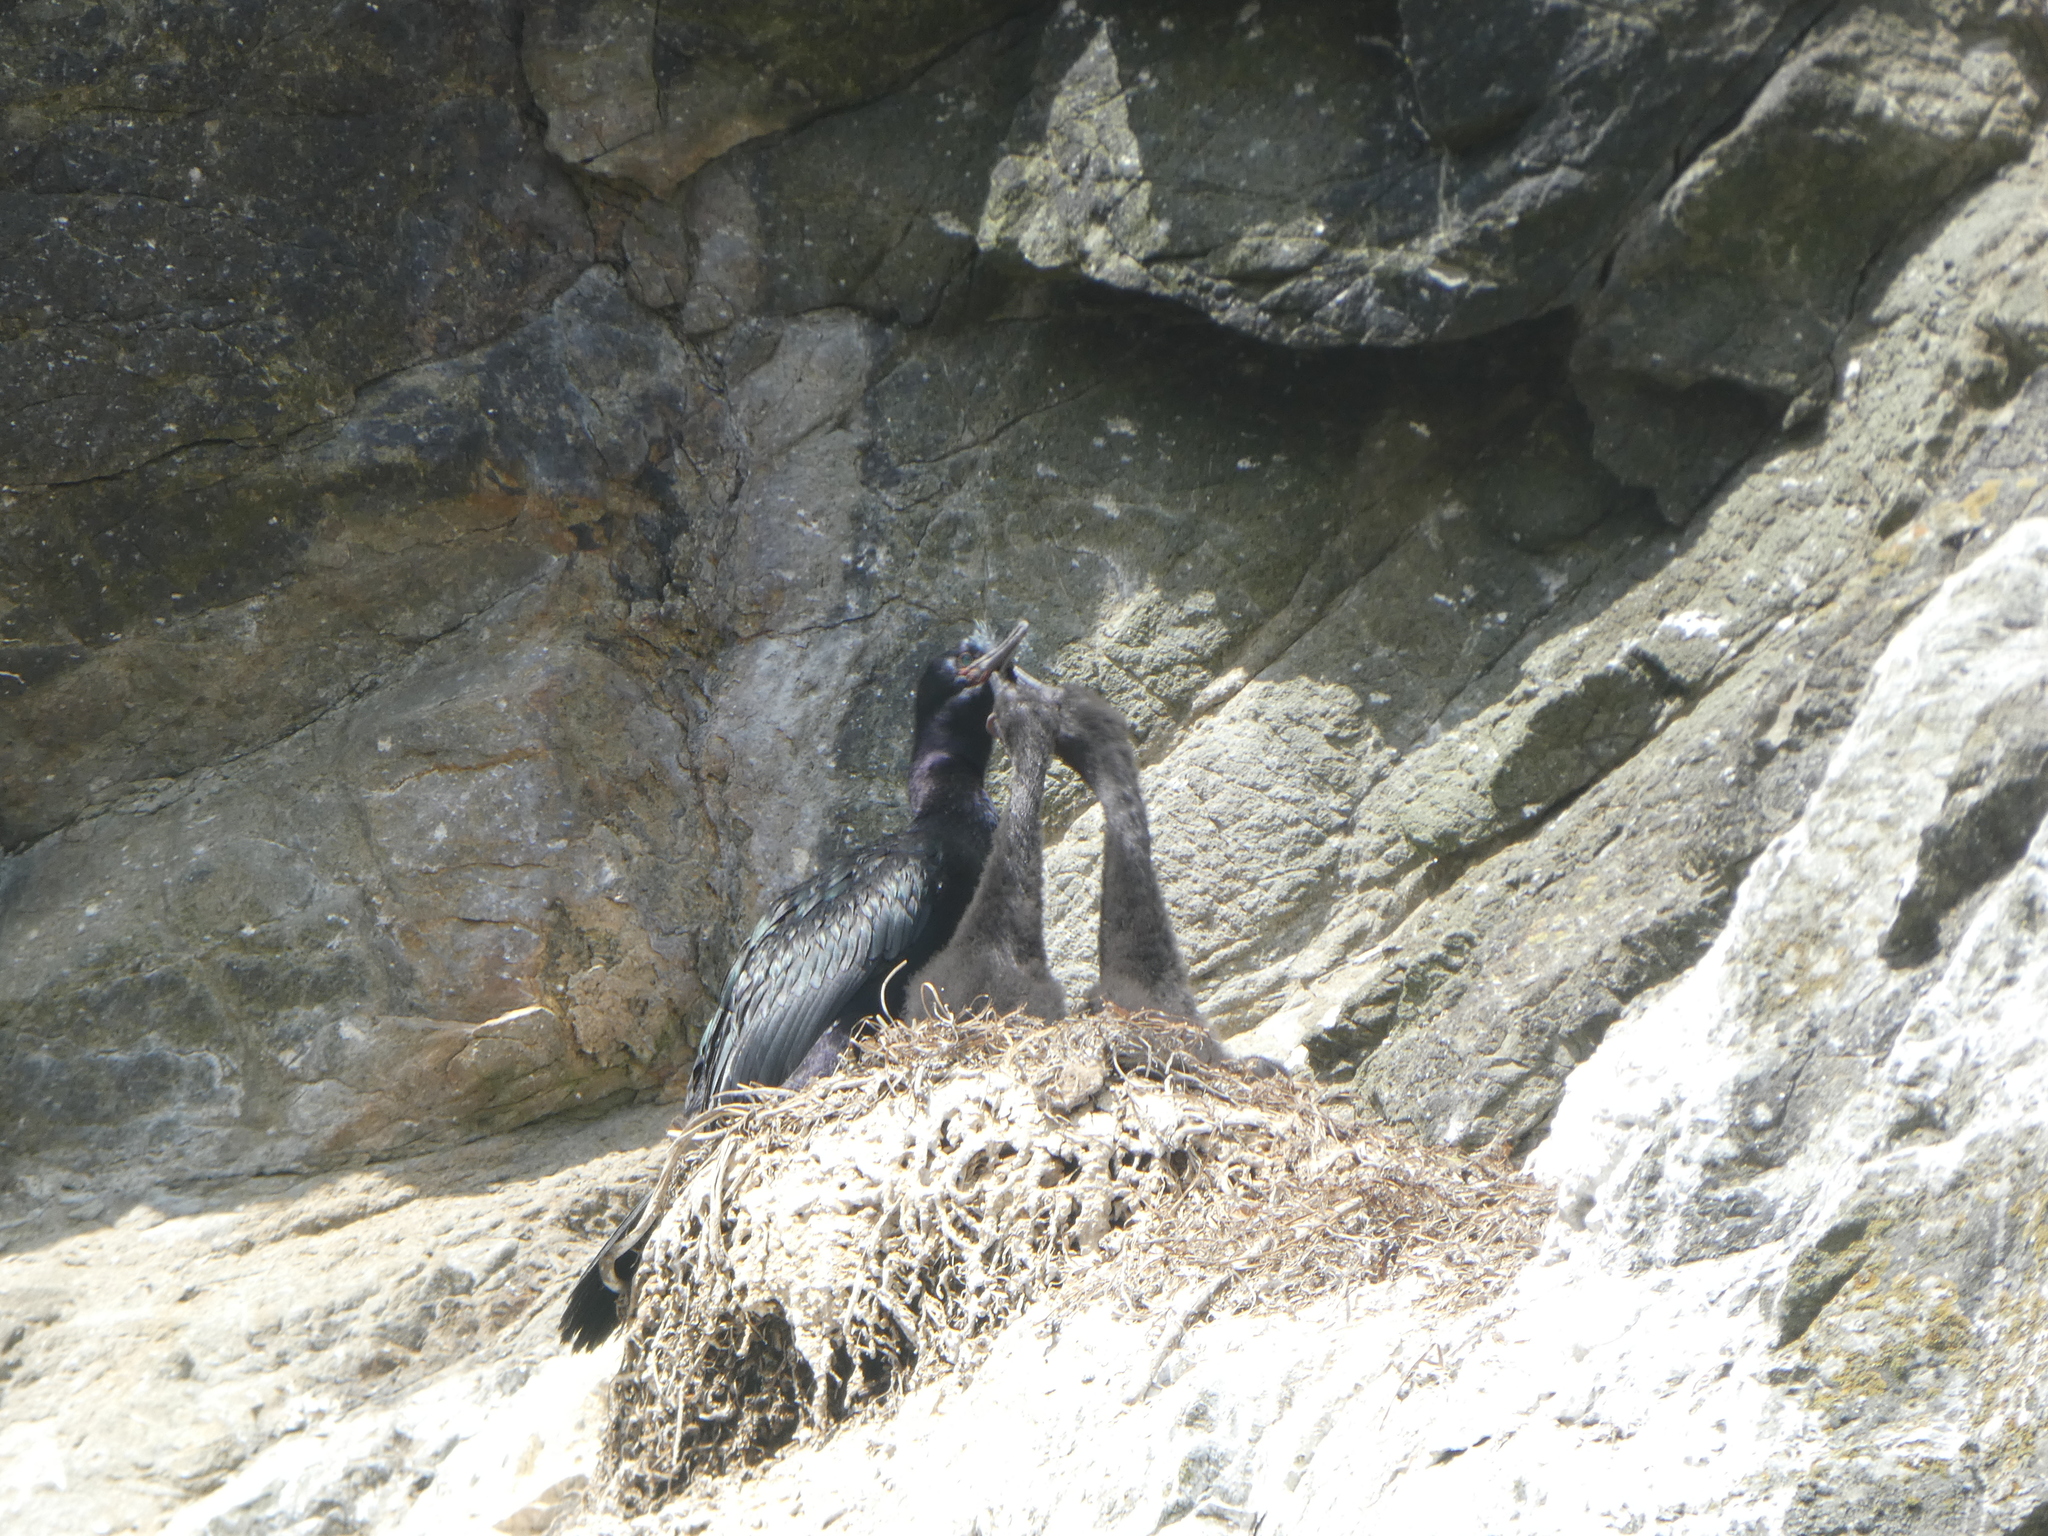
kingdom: Animalia
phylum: Chordata
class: Aves
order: Suliformes
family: Phalacrocoracidae
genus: Phalacrocorax
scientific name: Phalacrocorax pelagicus
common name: Pelagic cormorant
